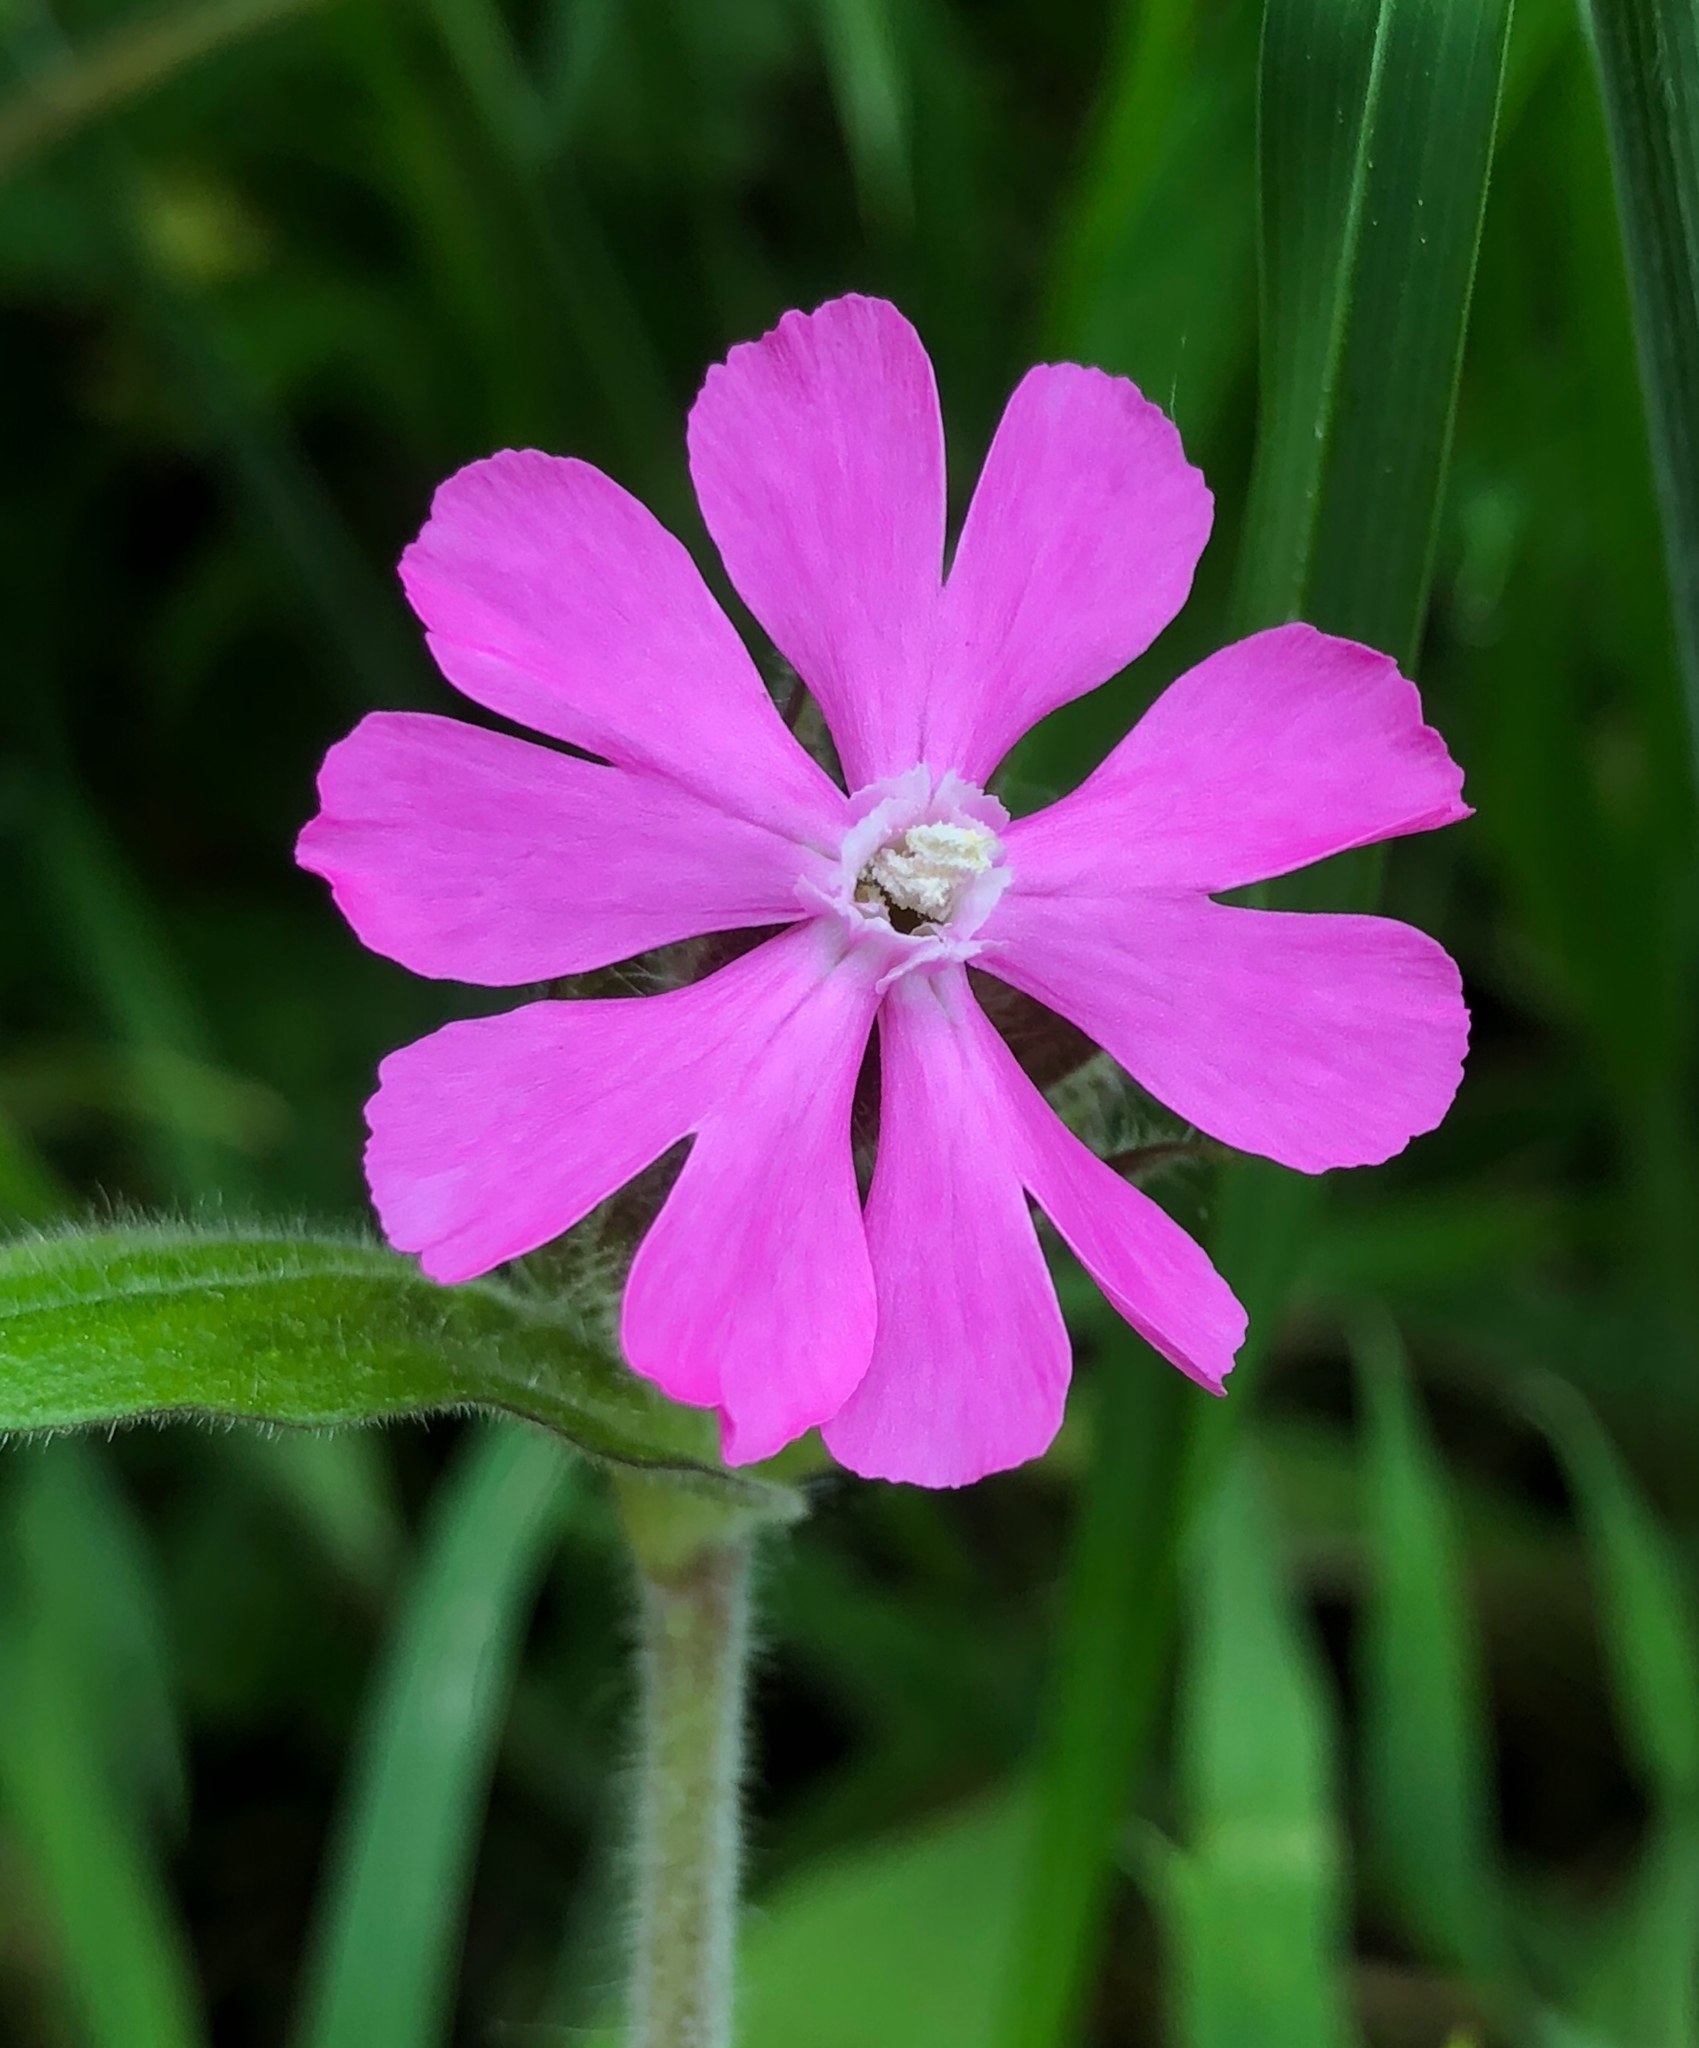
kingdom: Plantae
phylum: Tracheophyta
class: Magnoliopsida
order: Caryophyllales
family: Caryophyllaceae
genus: Silene
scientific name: Silene dioica
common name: Red campion
